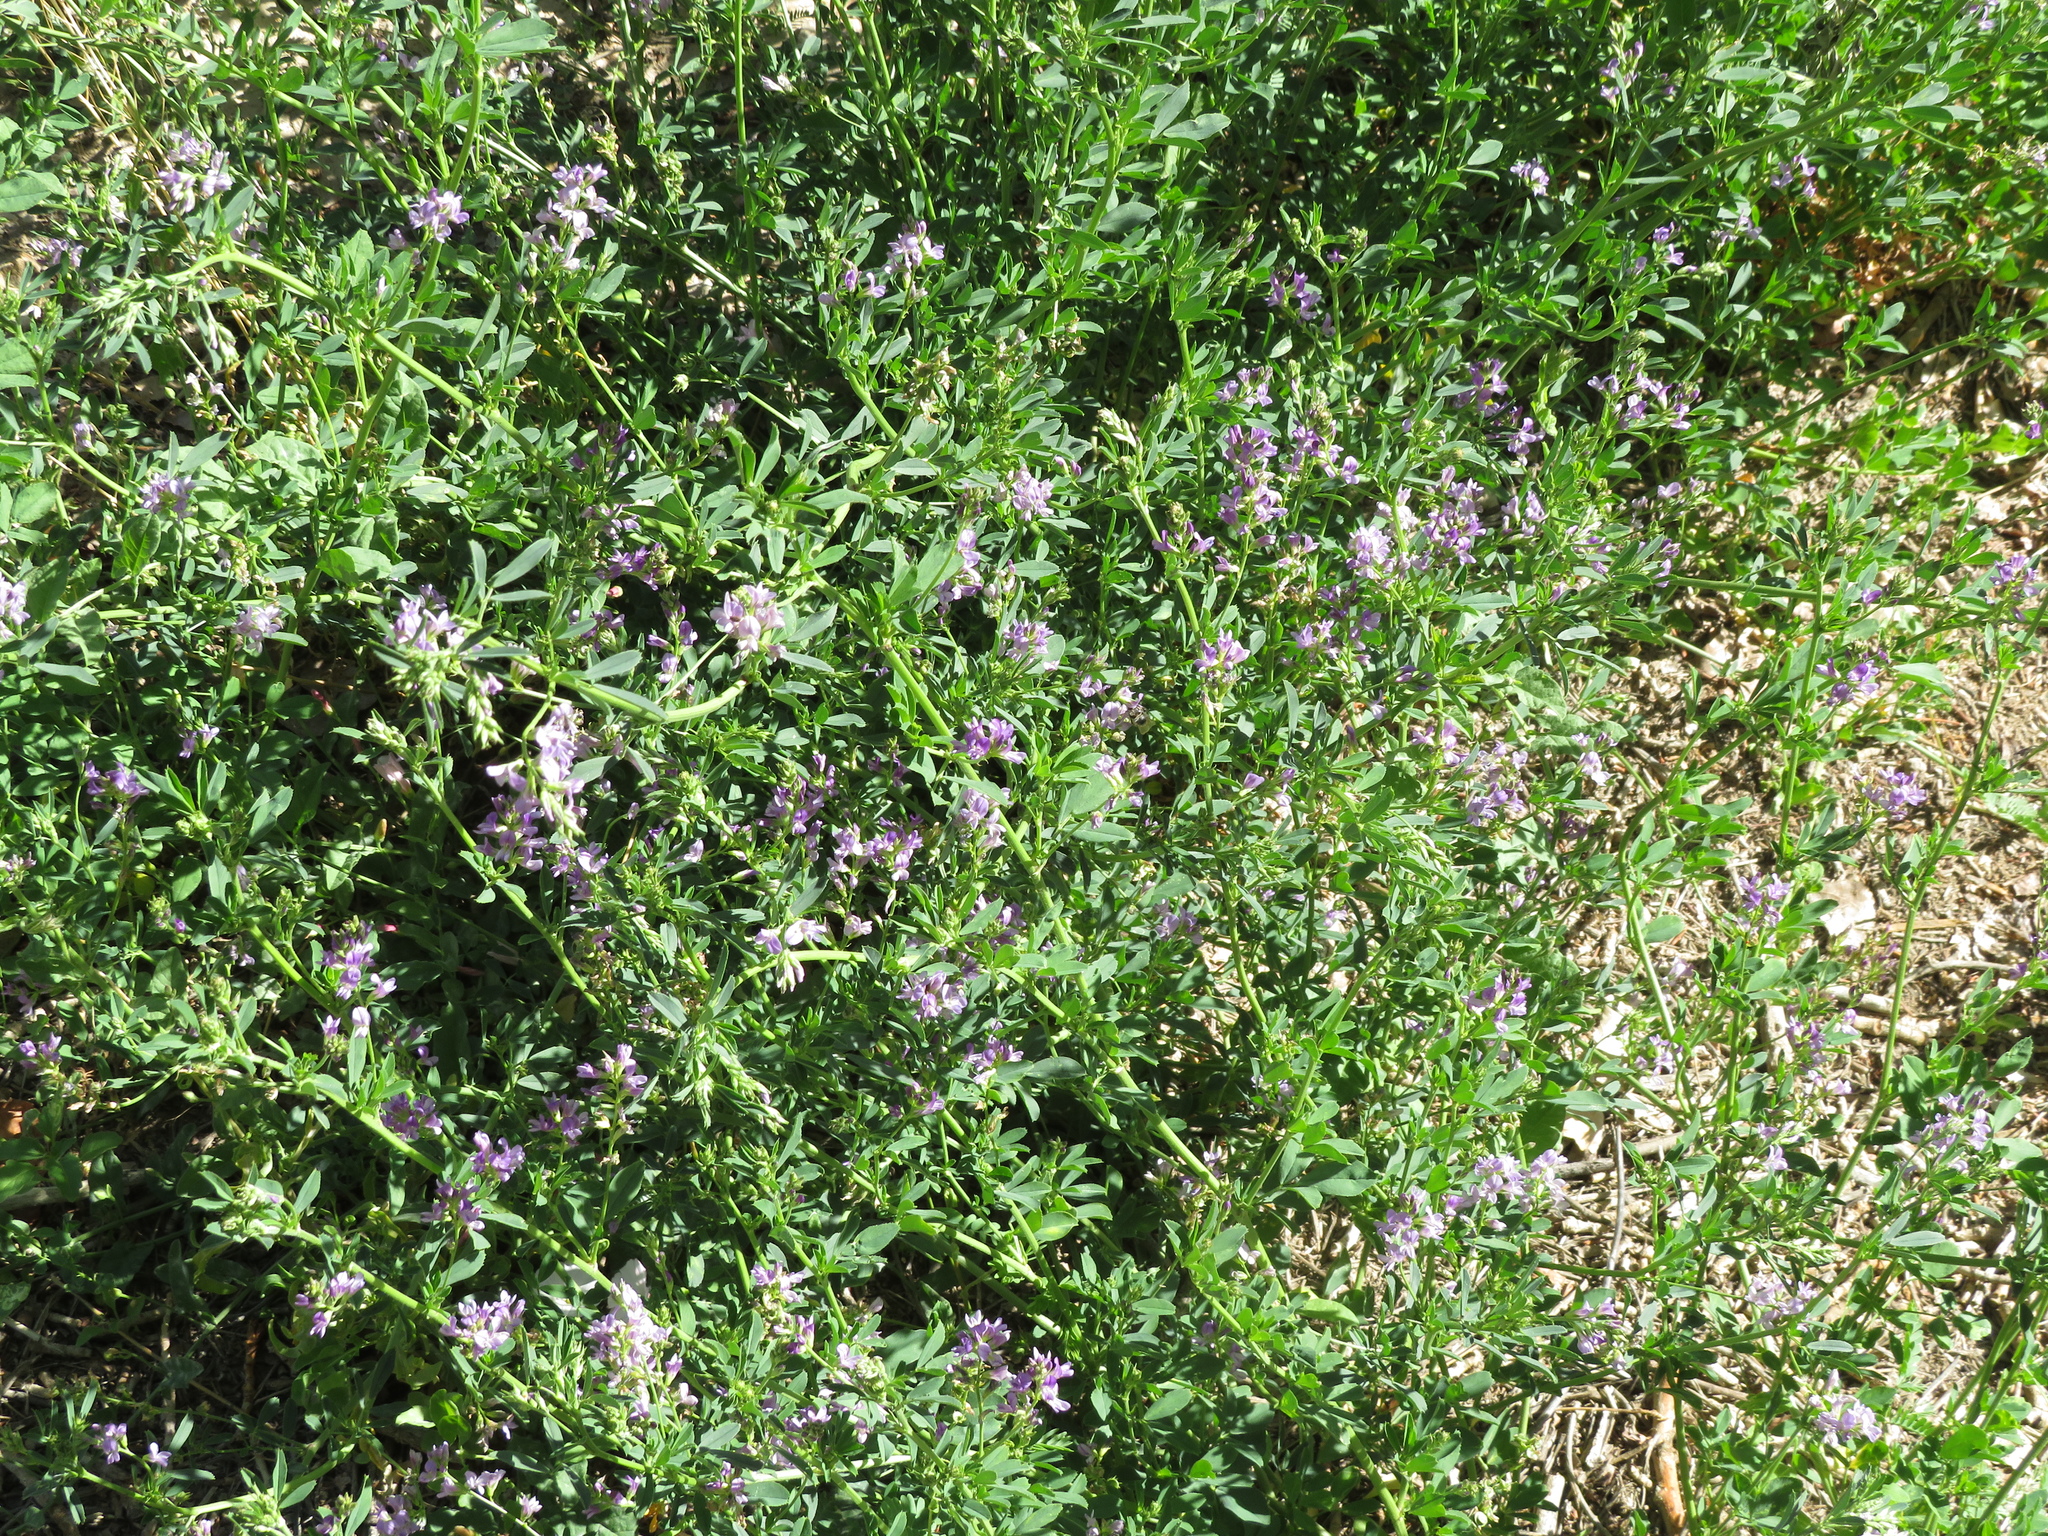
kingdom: Plantae
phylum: Tracheophyta
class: Magnoliopsida
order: Fabales
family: Fabaceae
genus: Medicago
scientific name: Medicago sativa
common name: Alfalfa
